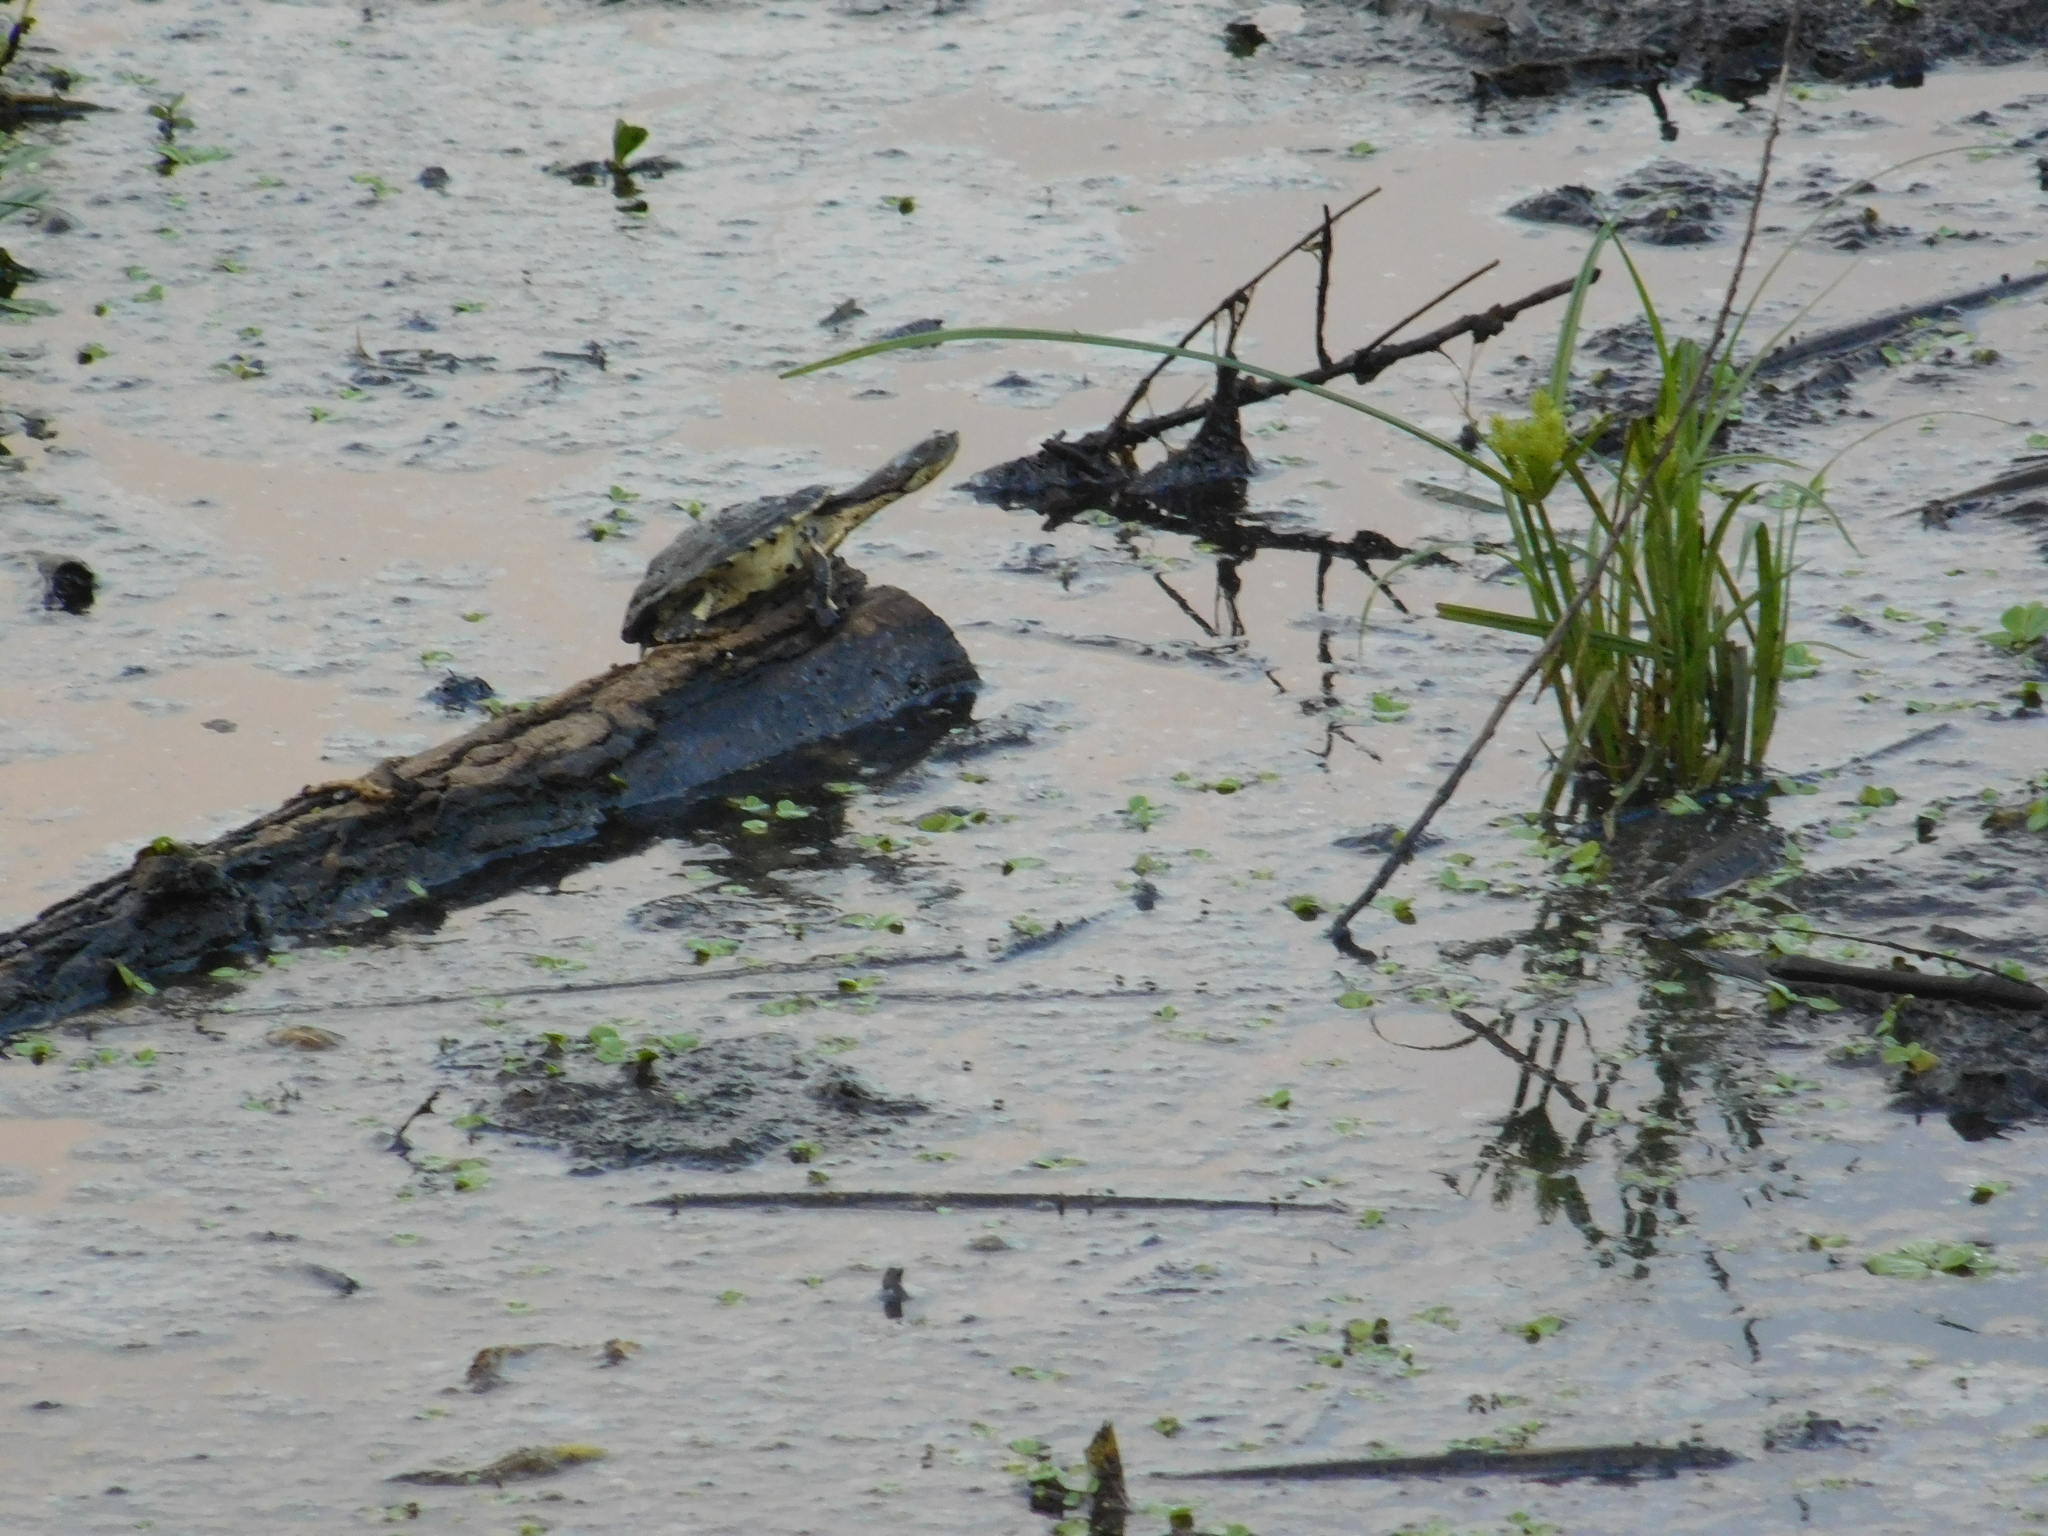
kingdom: Animalia
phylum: Chordata
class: Testudines
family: Chelidae
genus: Phrynops
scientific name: Phrynops hilarii
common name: Side-necked turtle of saint hillaire
